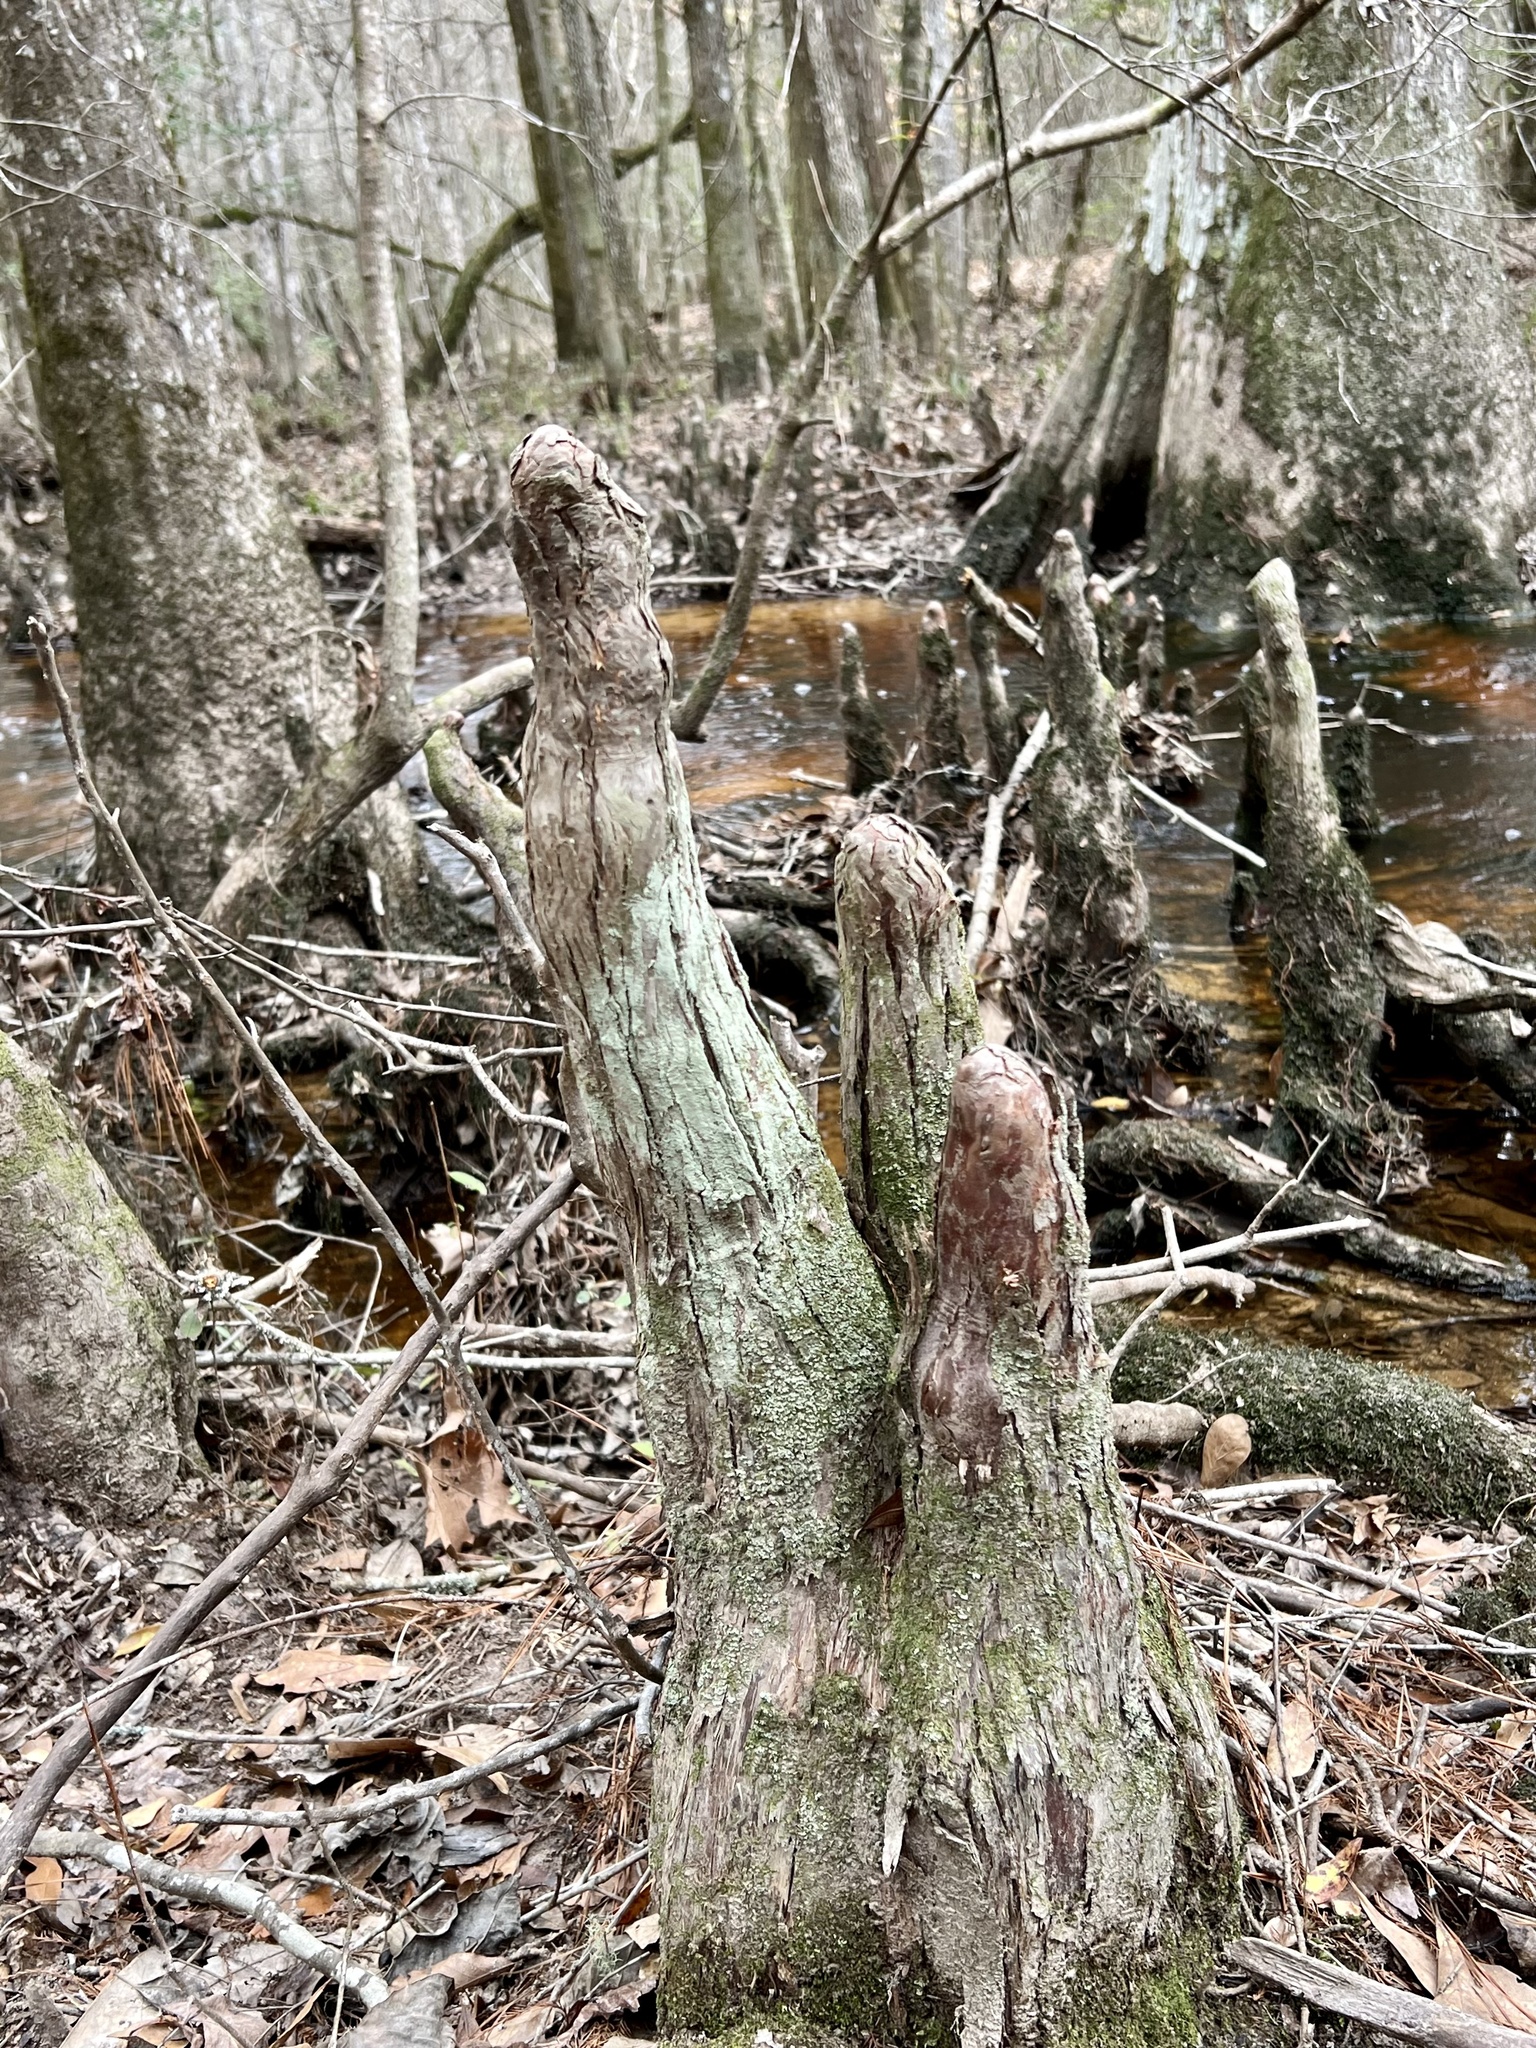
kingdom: Plantae
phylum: Tracheophyta
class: Pinopsida
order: Pinales
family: Cupressaceae
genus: Taxodium
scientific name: Taxodium distichum
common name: Bald cypress
